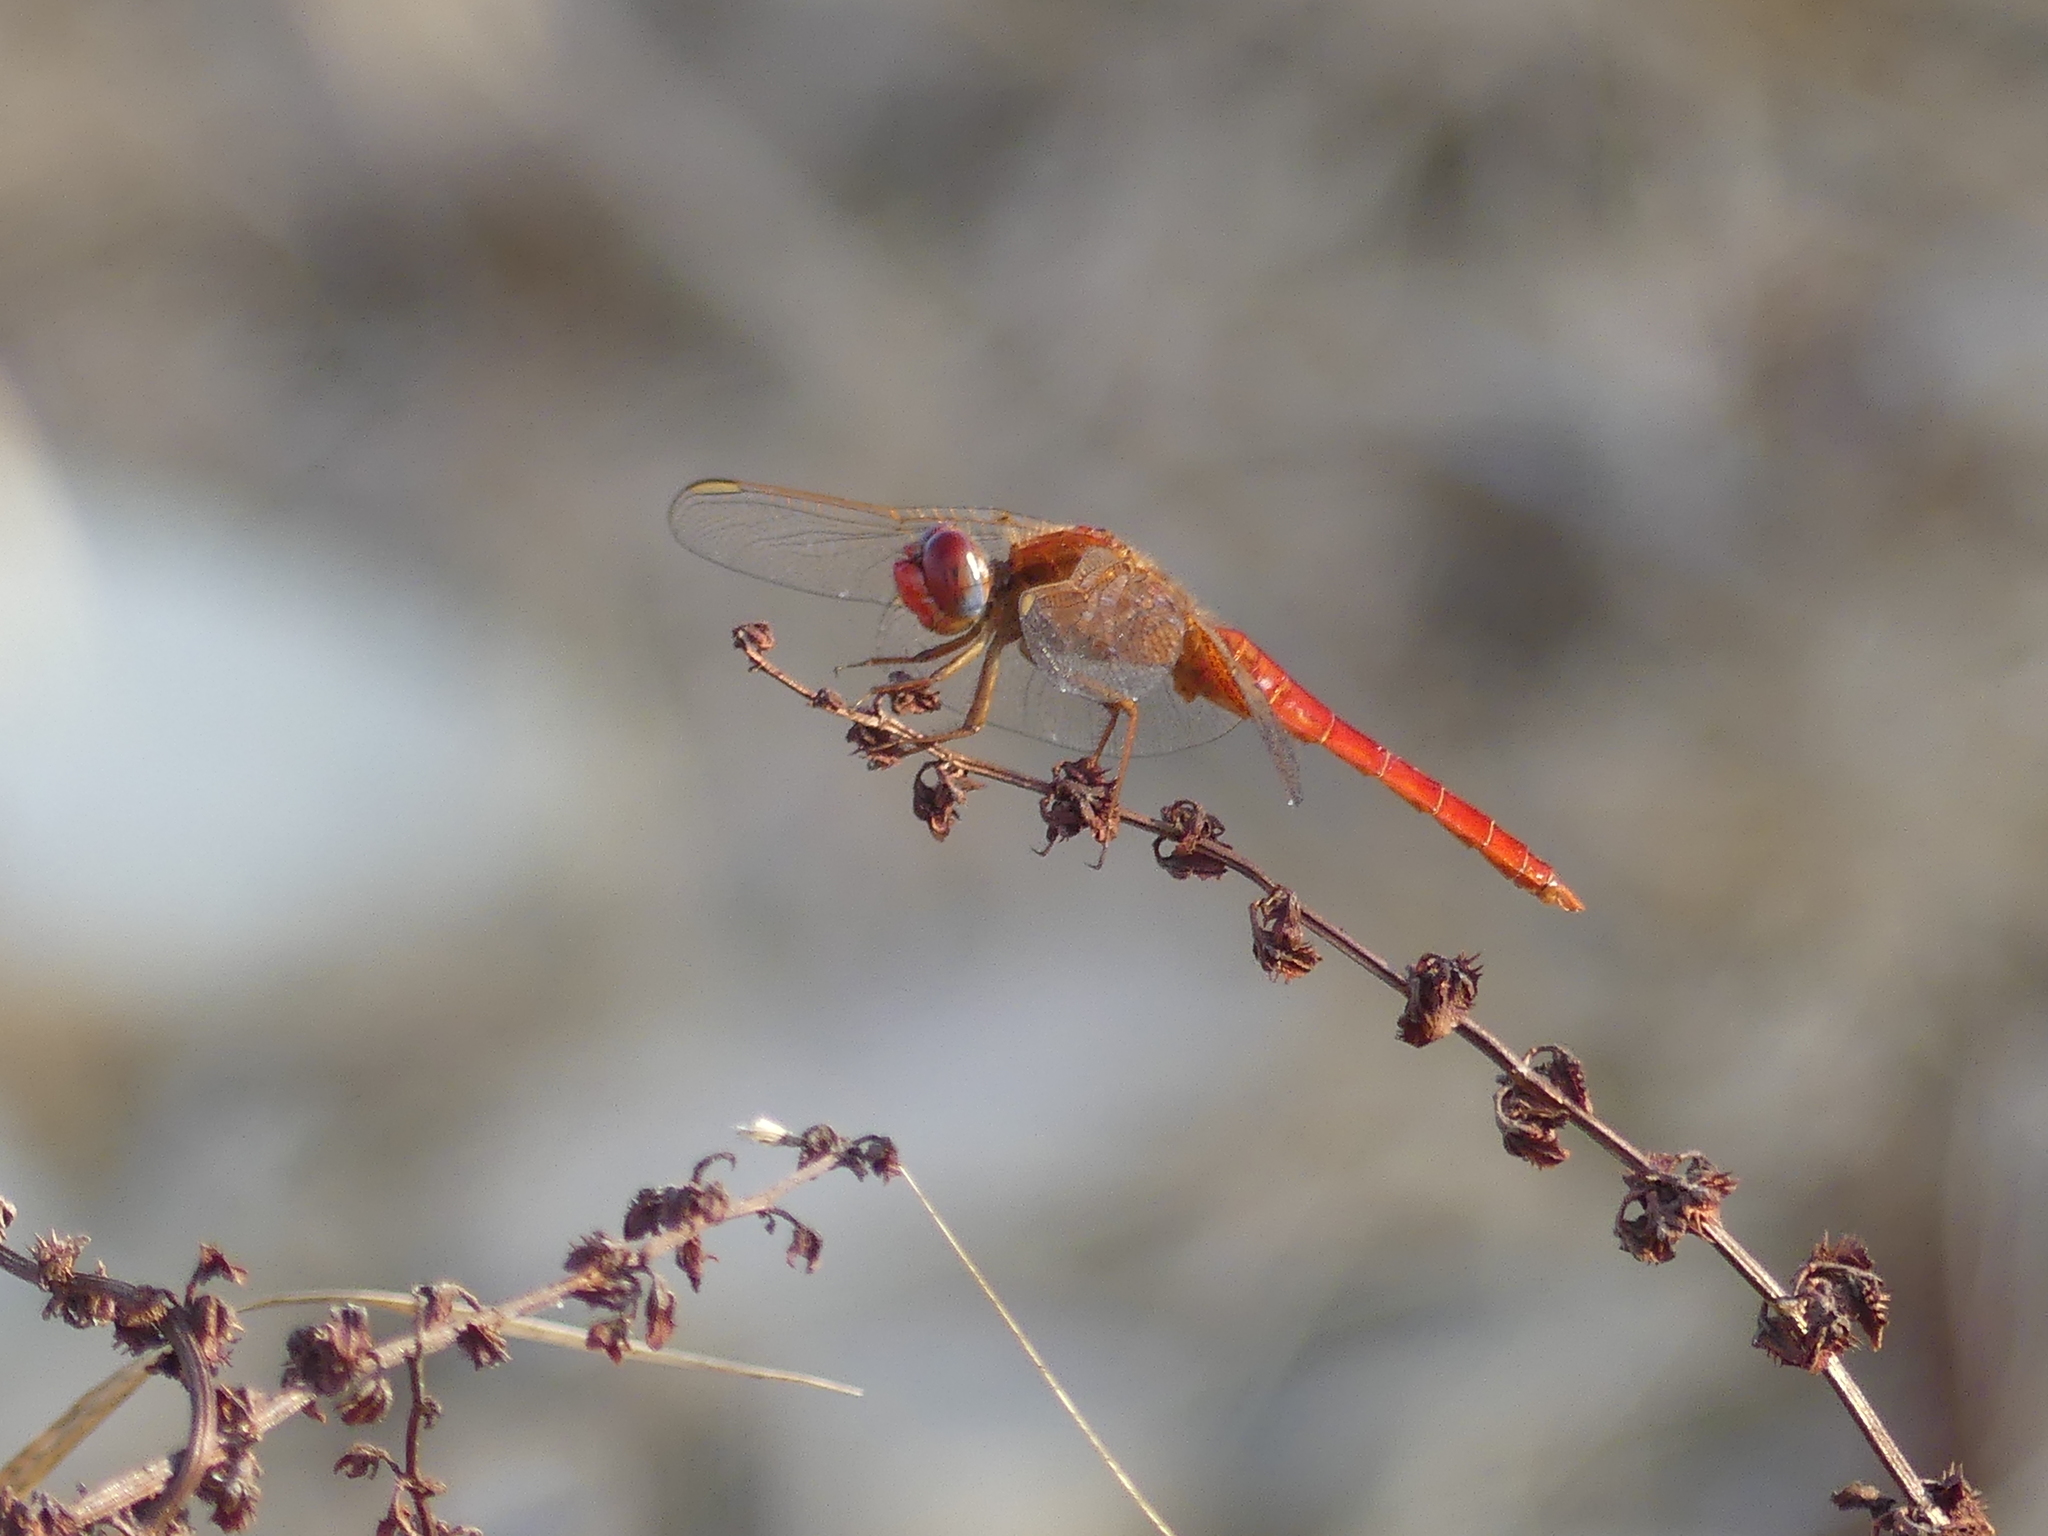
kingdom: Animalia
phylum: Arthropoda
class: Insecta
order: Odonata
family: Libellulidae
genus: Crocothemis
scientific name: Crocothemis erythraea
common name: Scarlet dragonfly
